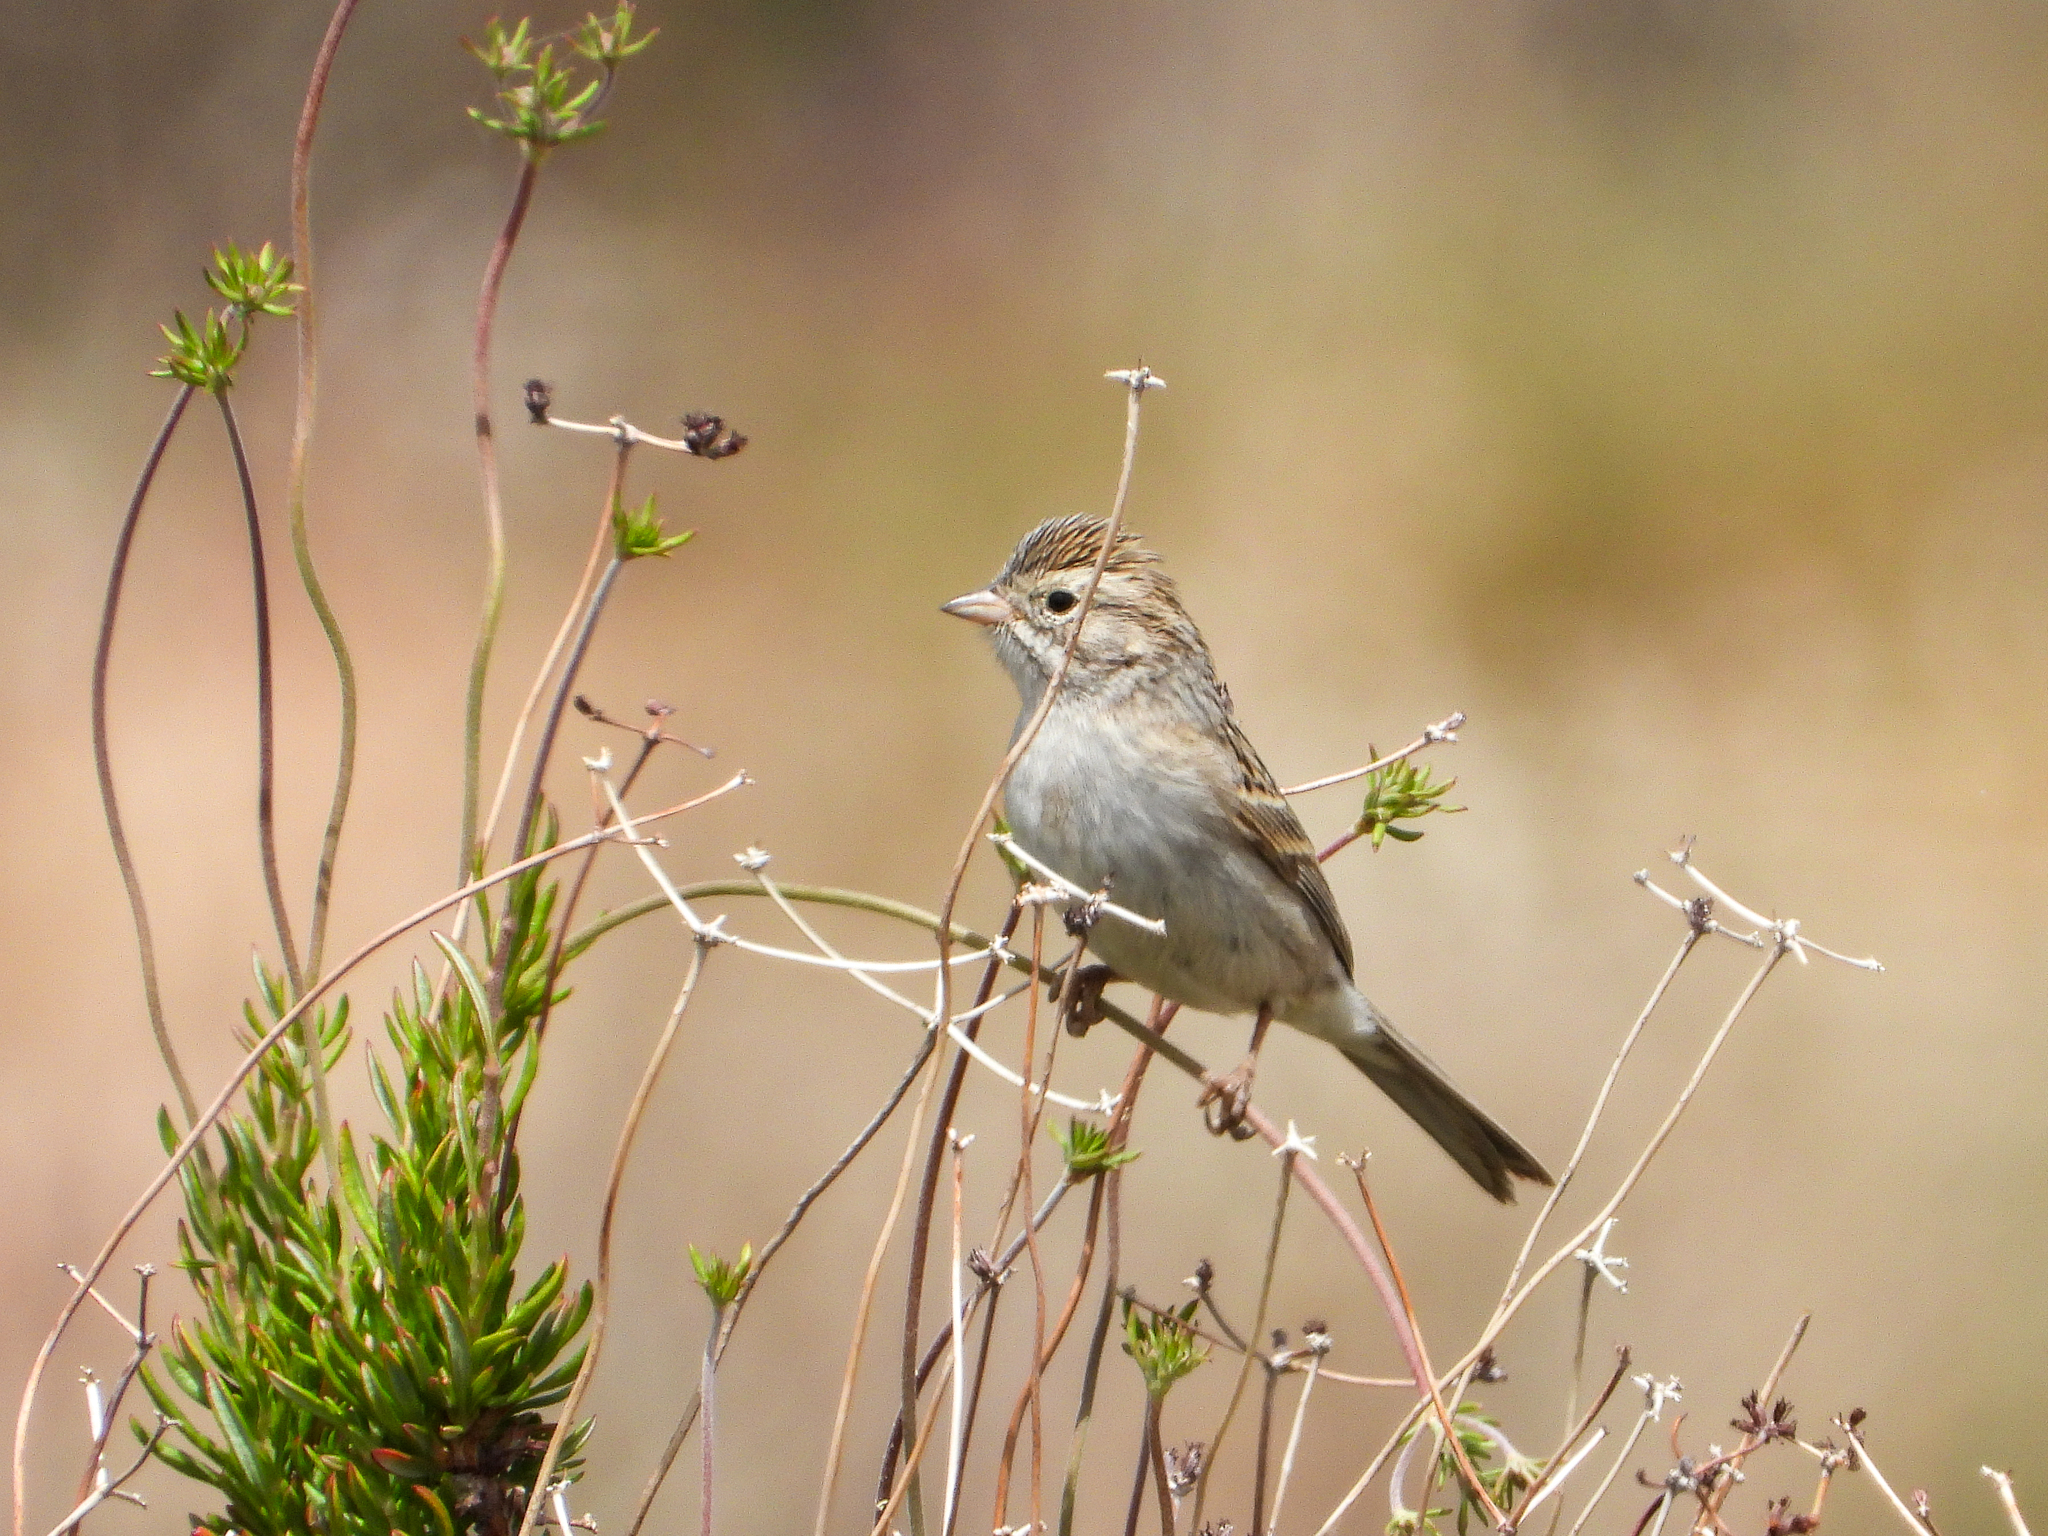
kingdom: Animalia
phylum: Chordata
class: Aves
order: Passeriformes
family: Passerellidae
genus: Spizella
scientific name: Spizella breweri
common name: Brewer's sparrow
